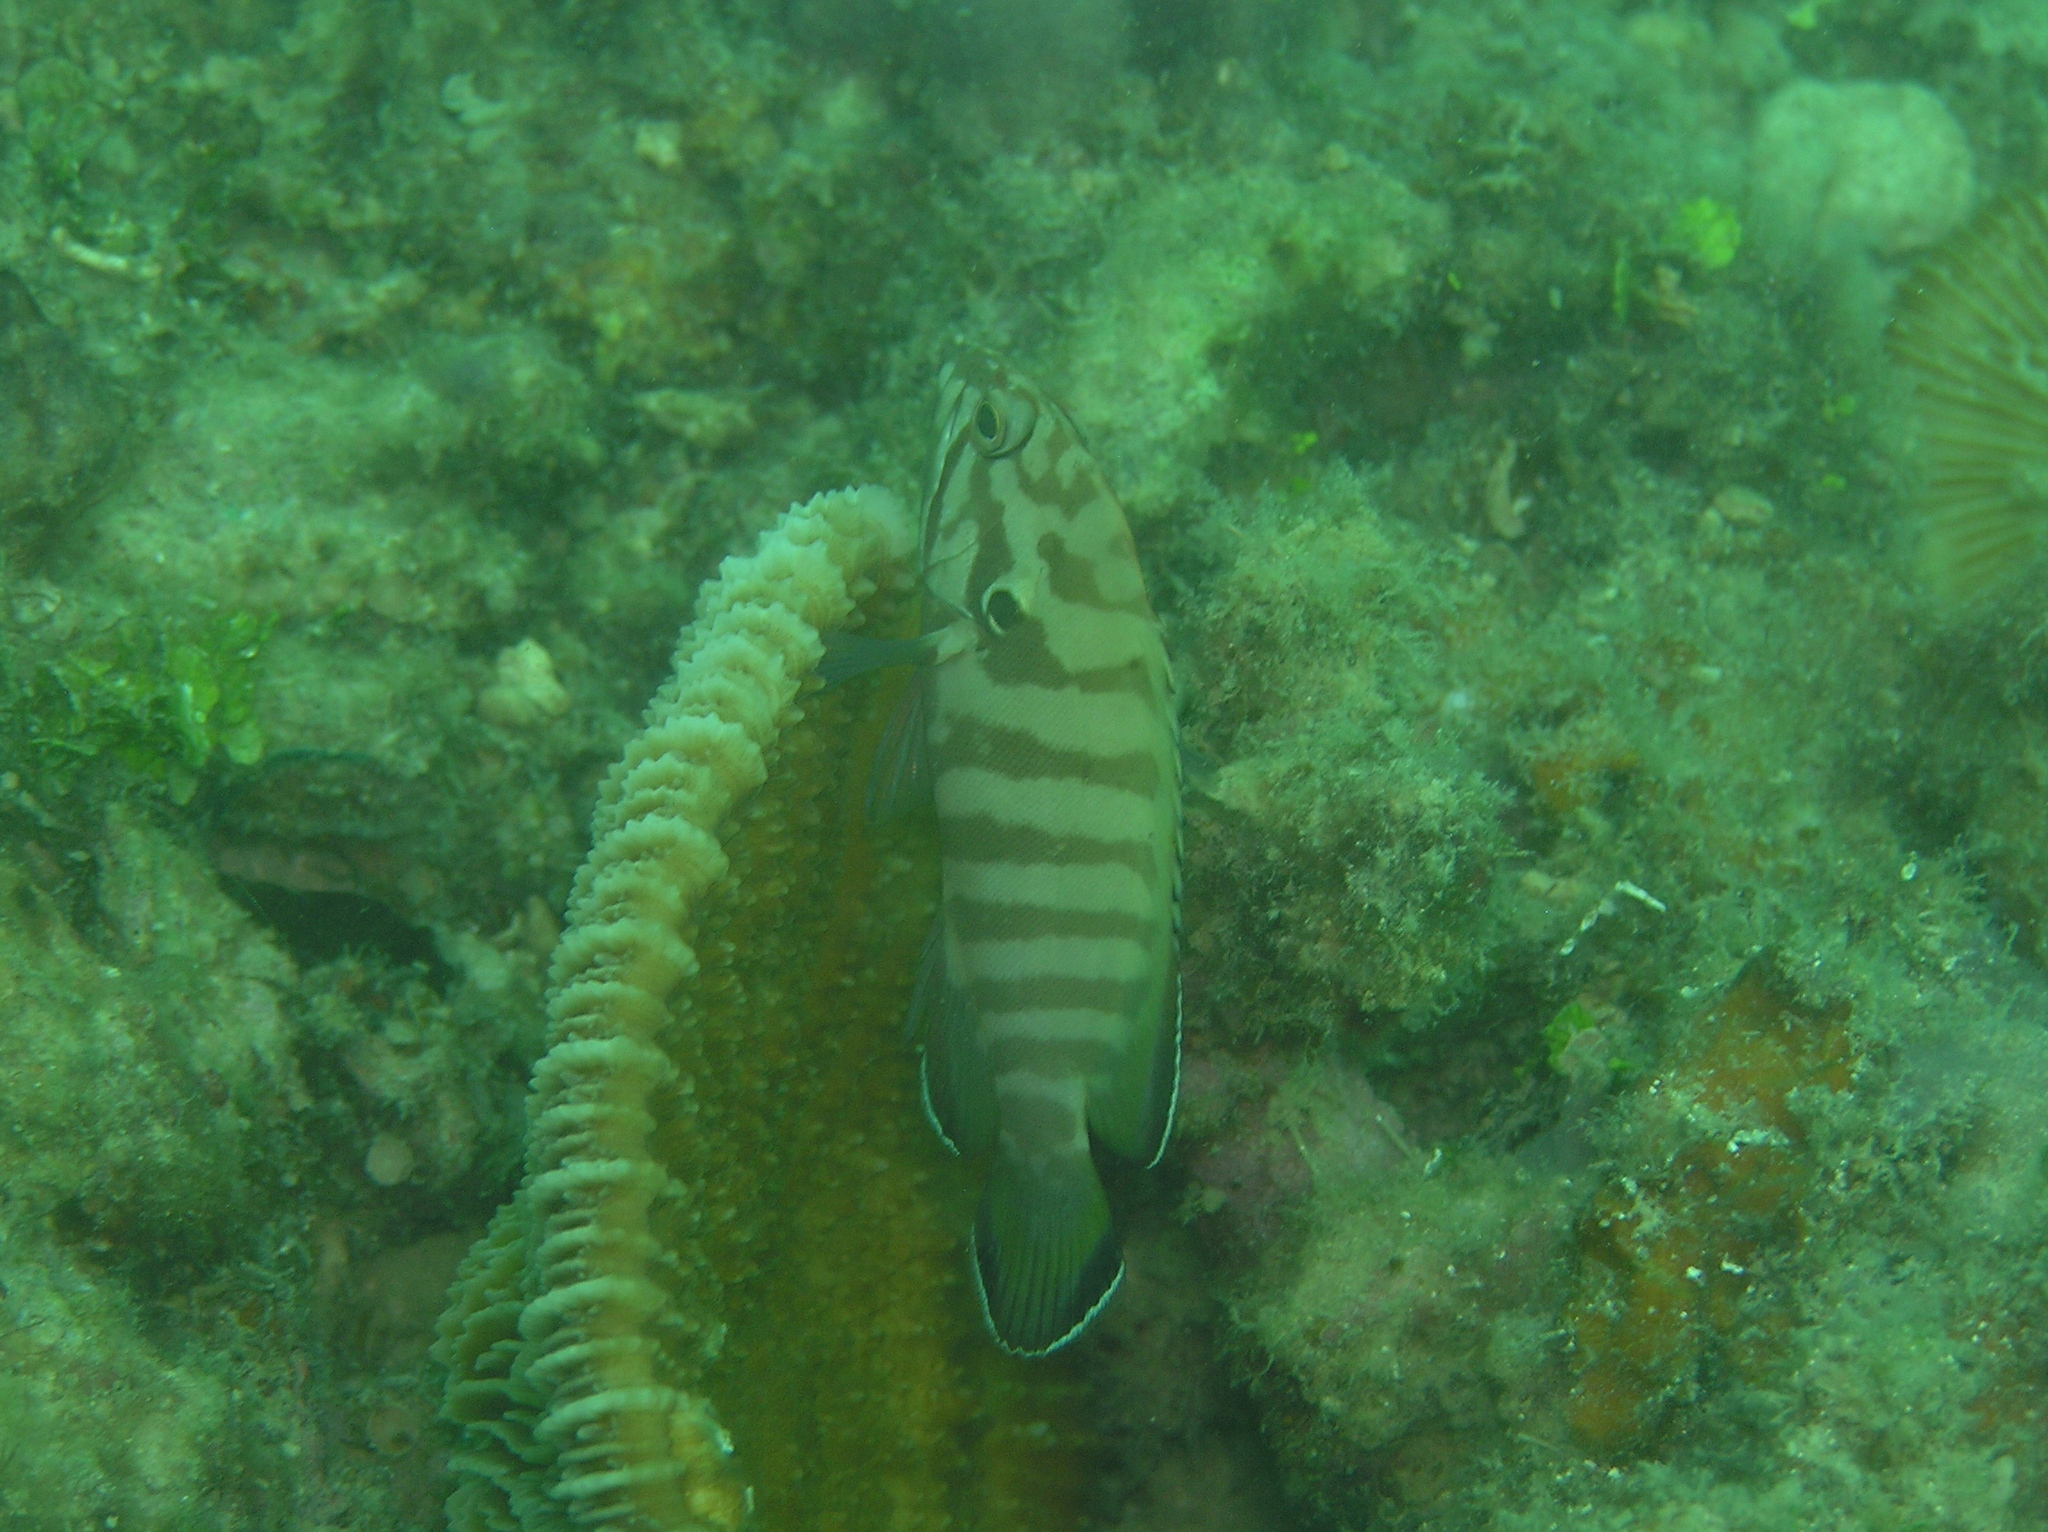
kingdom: Animalia
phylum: Chordata
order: Perciformes
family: Serranidae
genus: Cephalopholis
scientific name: Cephalopholis boenak
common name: Chocolate hind
